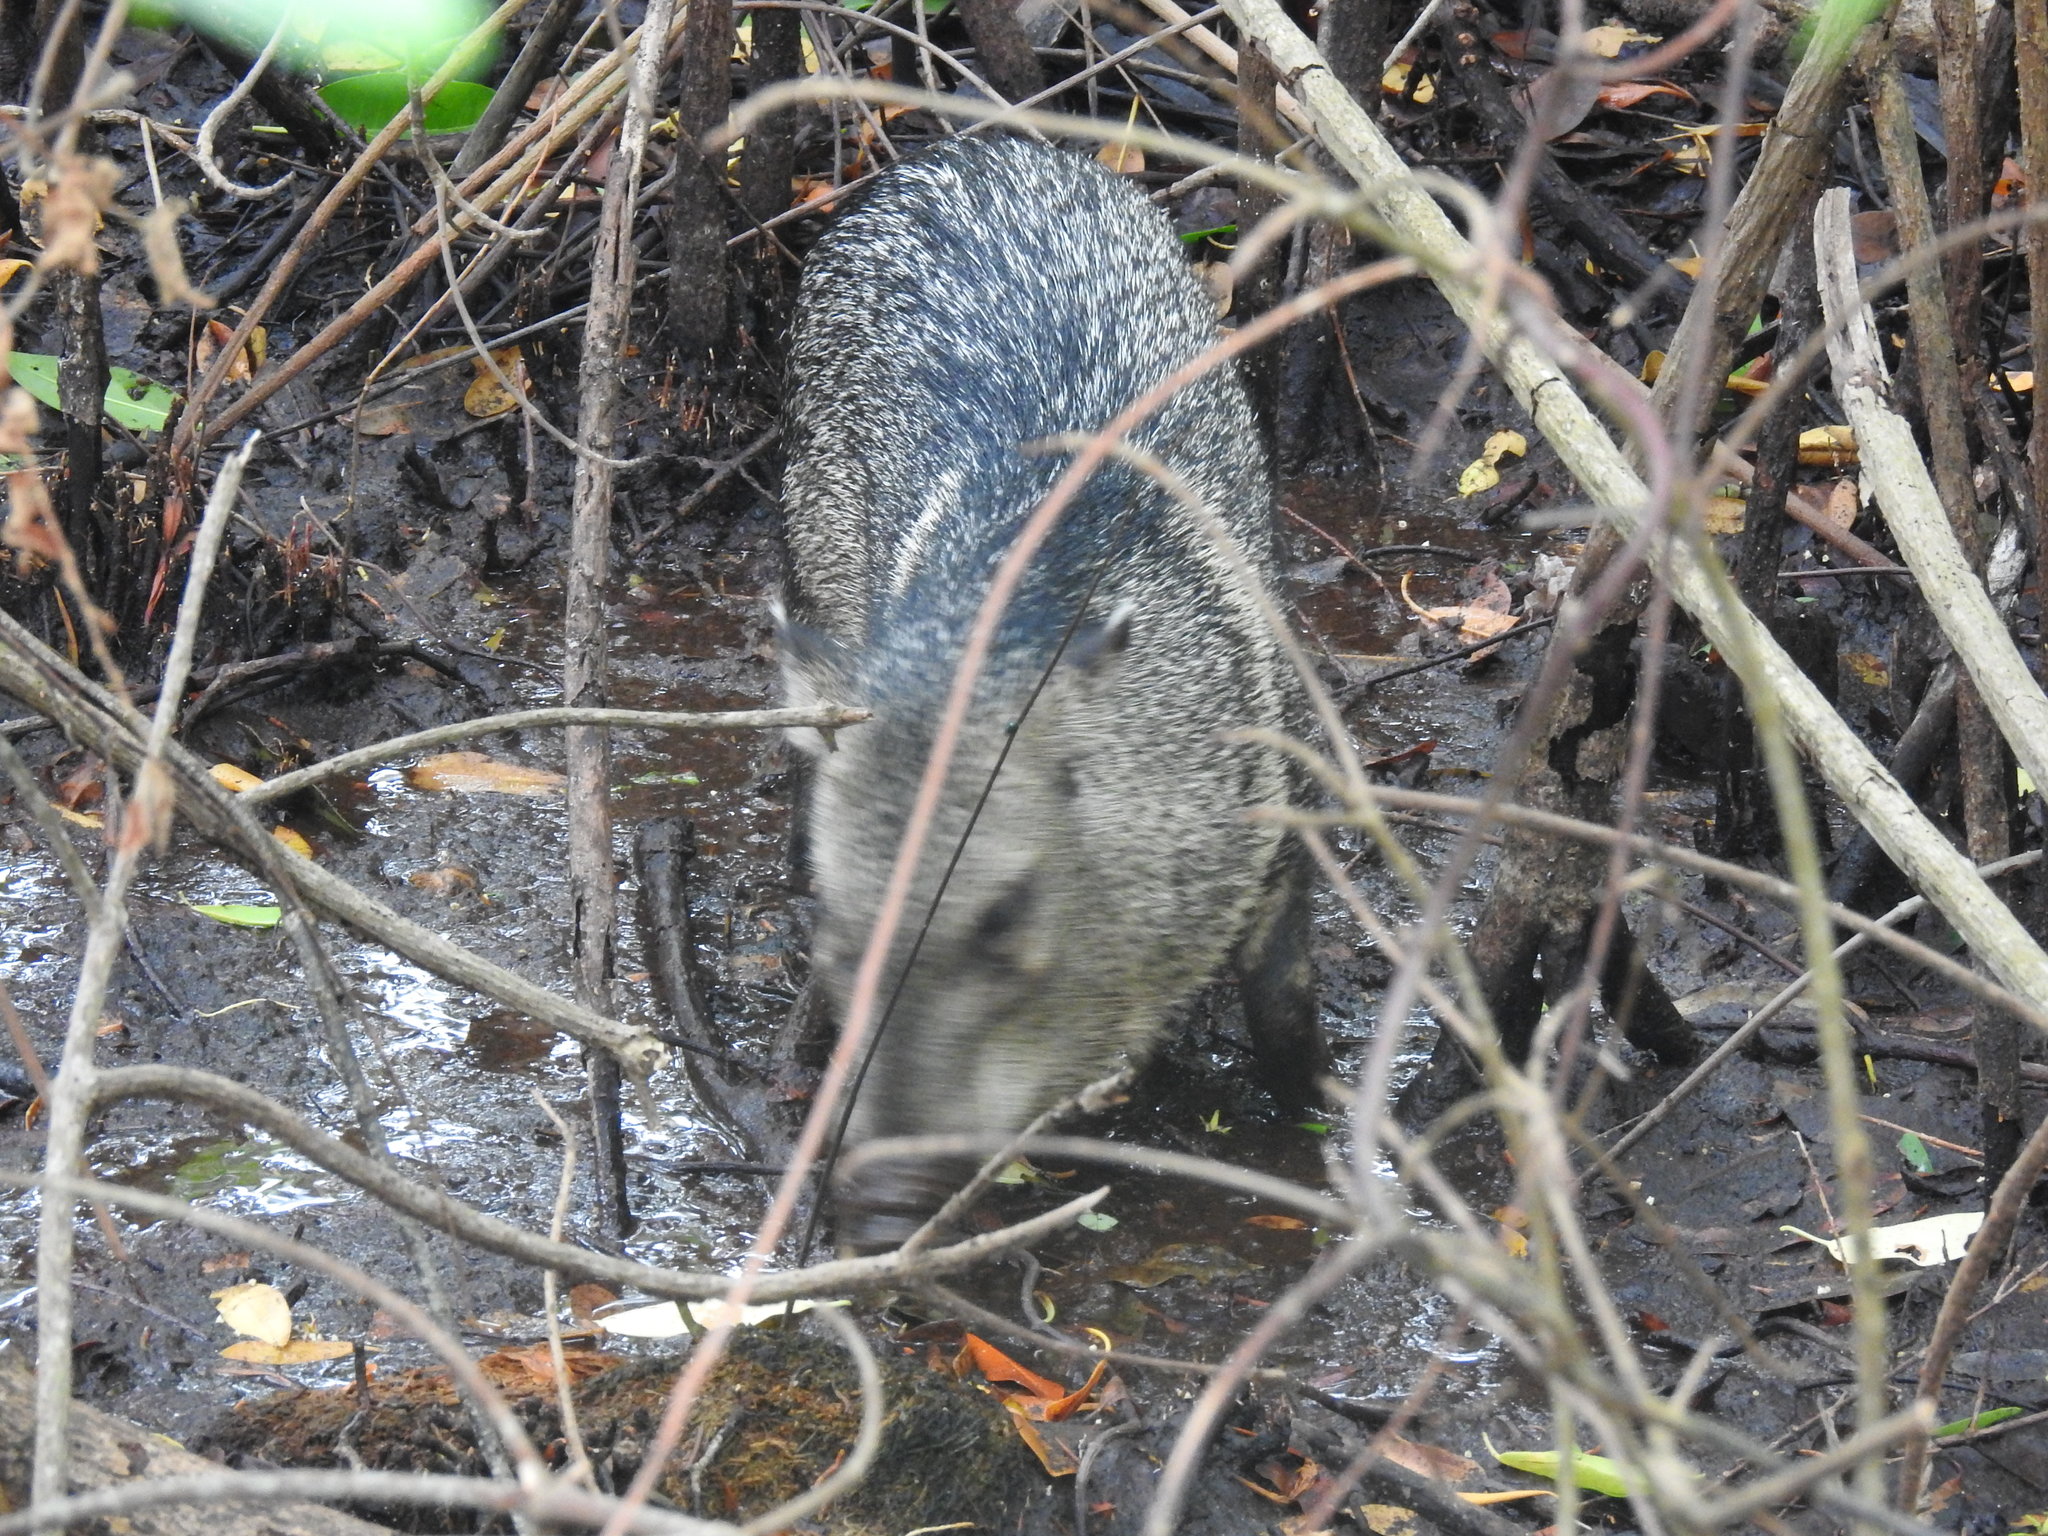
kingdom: Animalia
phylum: Chordata
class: Mammalia
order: Artiodactyla
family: Tayassuidae
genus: Pecari
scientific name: Pecari tajacu
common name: Collared peccary
